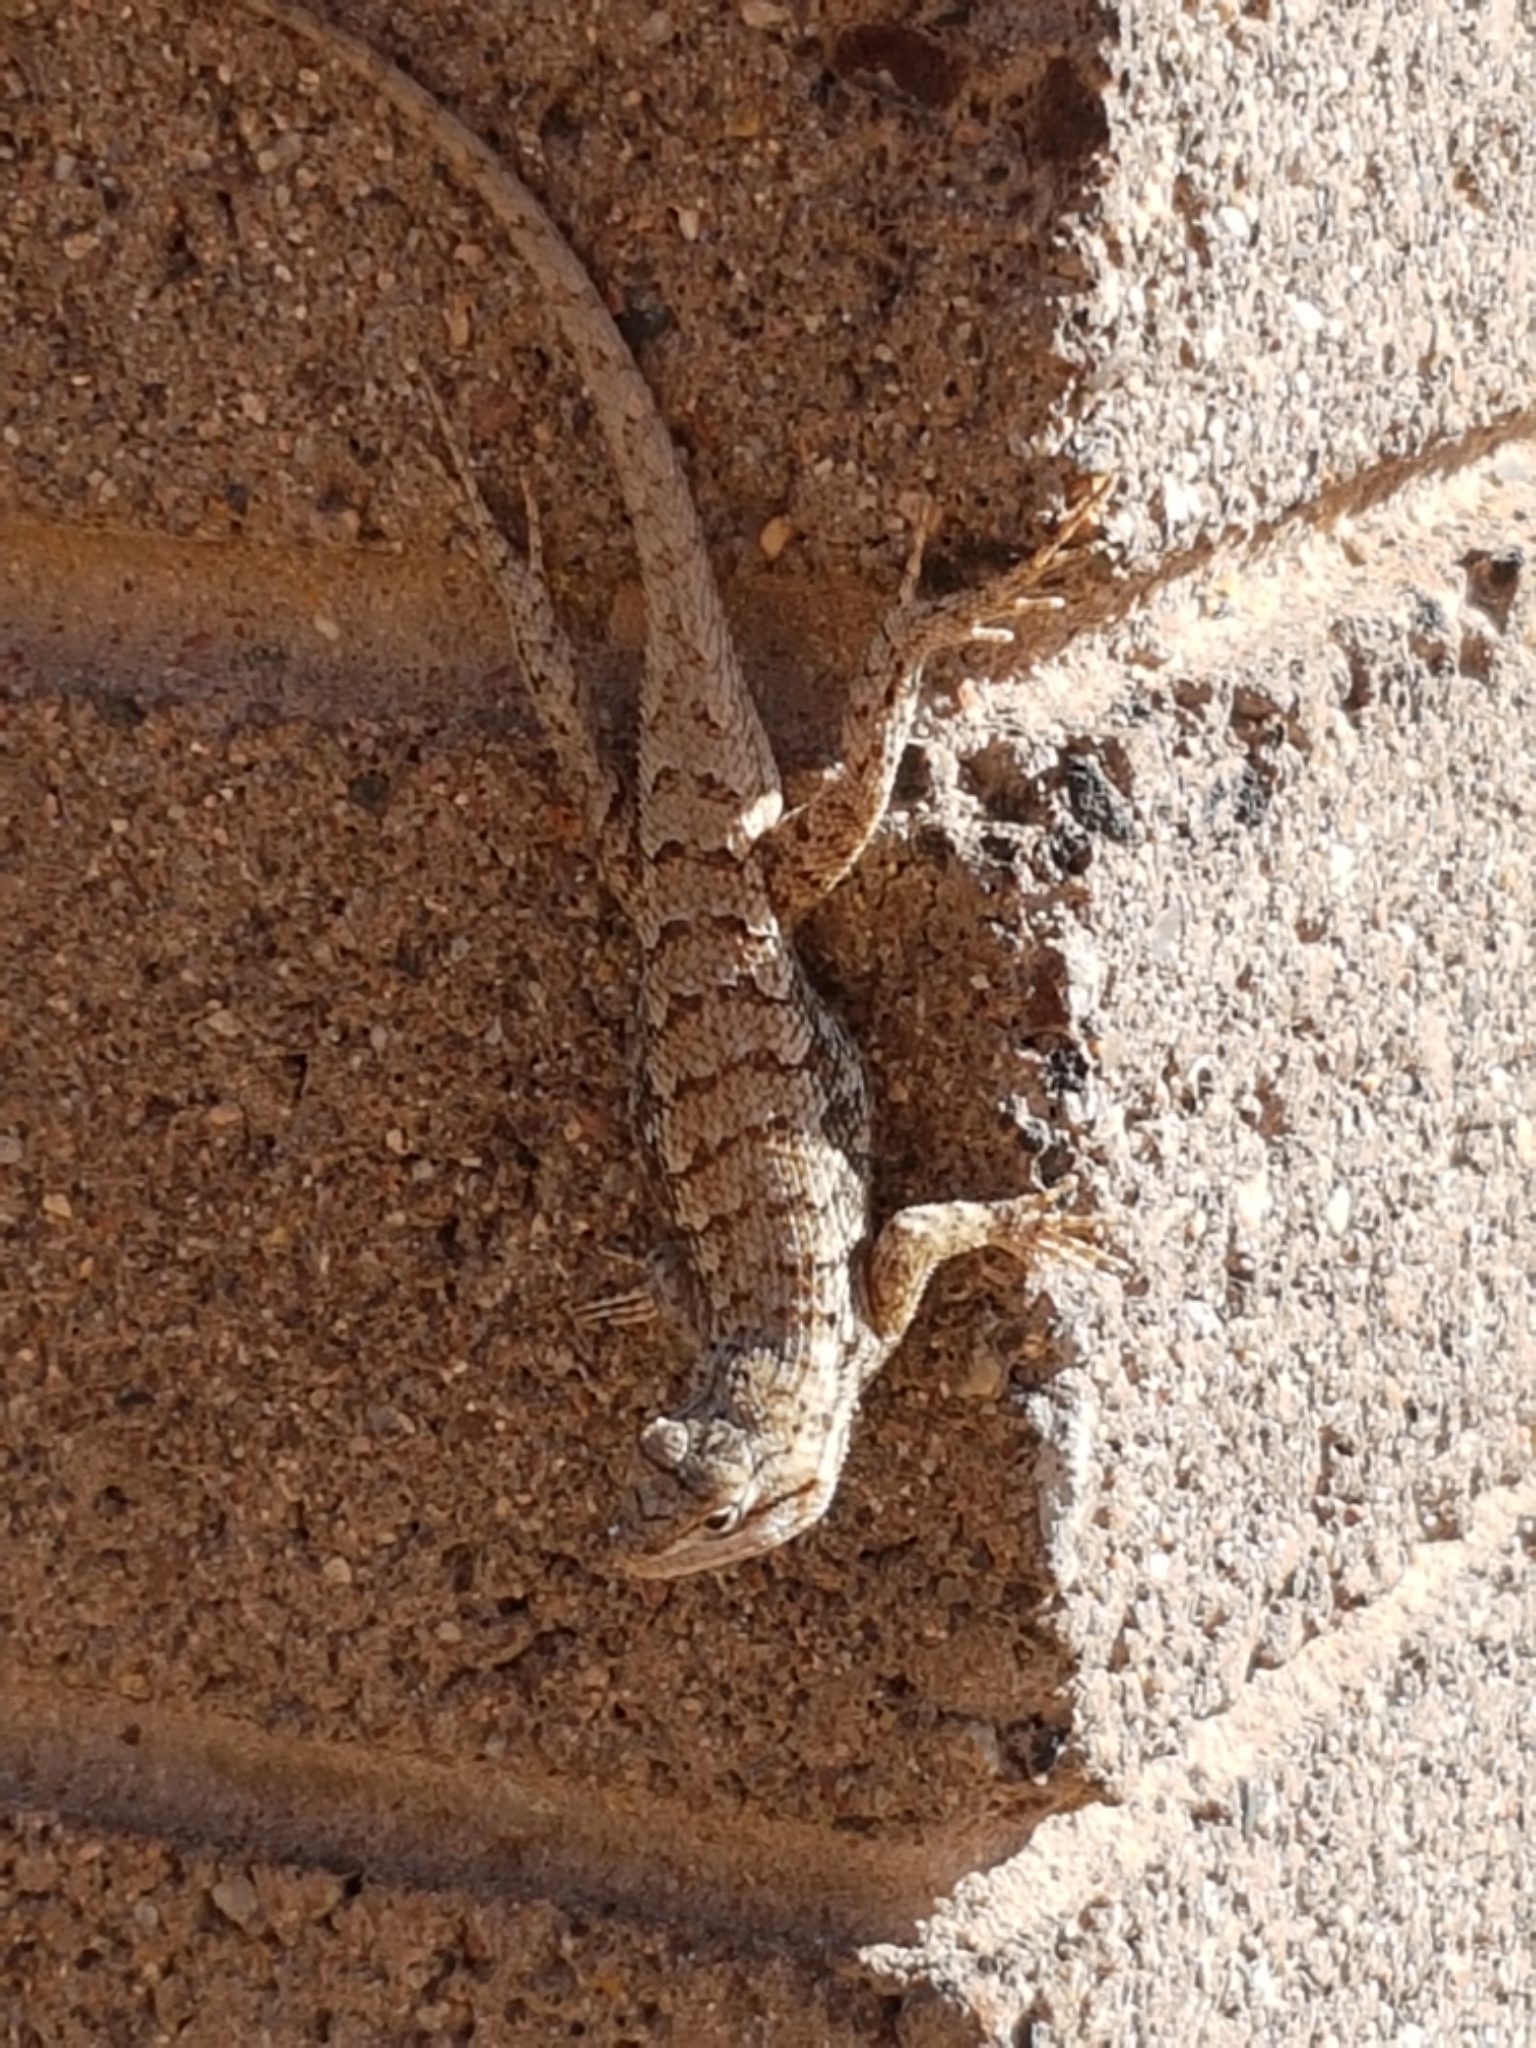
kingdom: Animalia
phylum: Chordata
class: Squamata
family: Phrynosomatidae
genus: Sceloporus
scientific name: Sceloporus tristichus
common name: Plateau fence lizard
